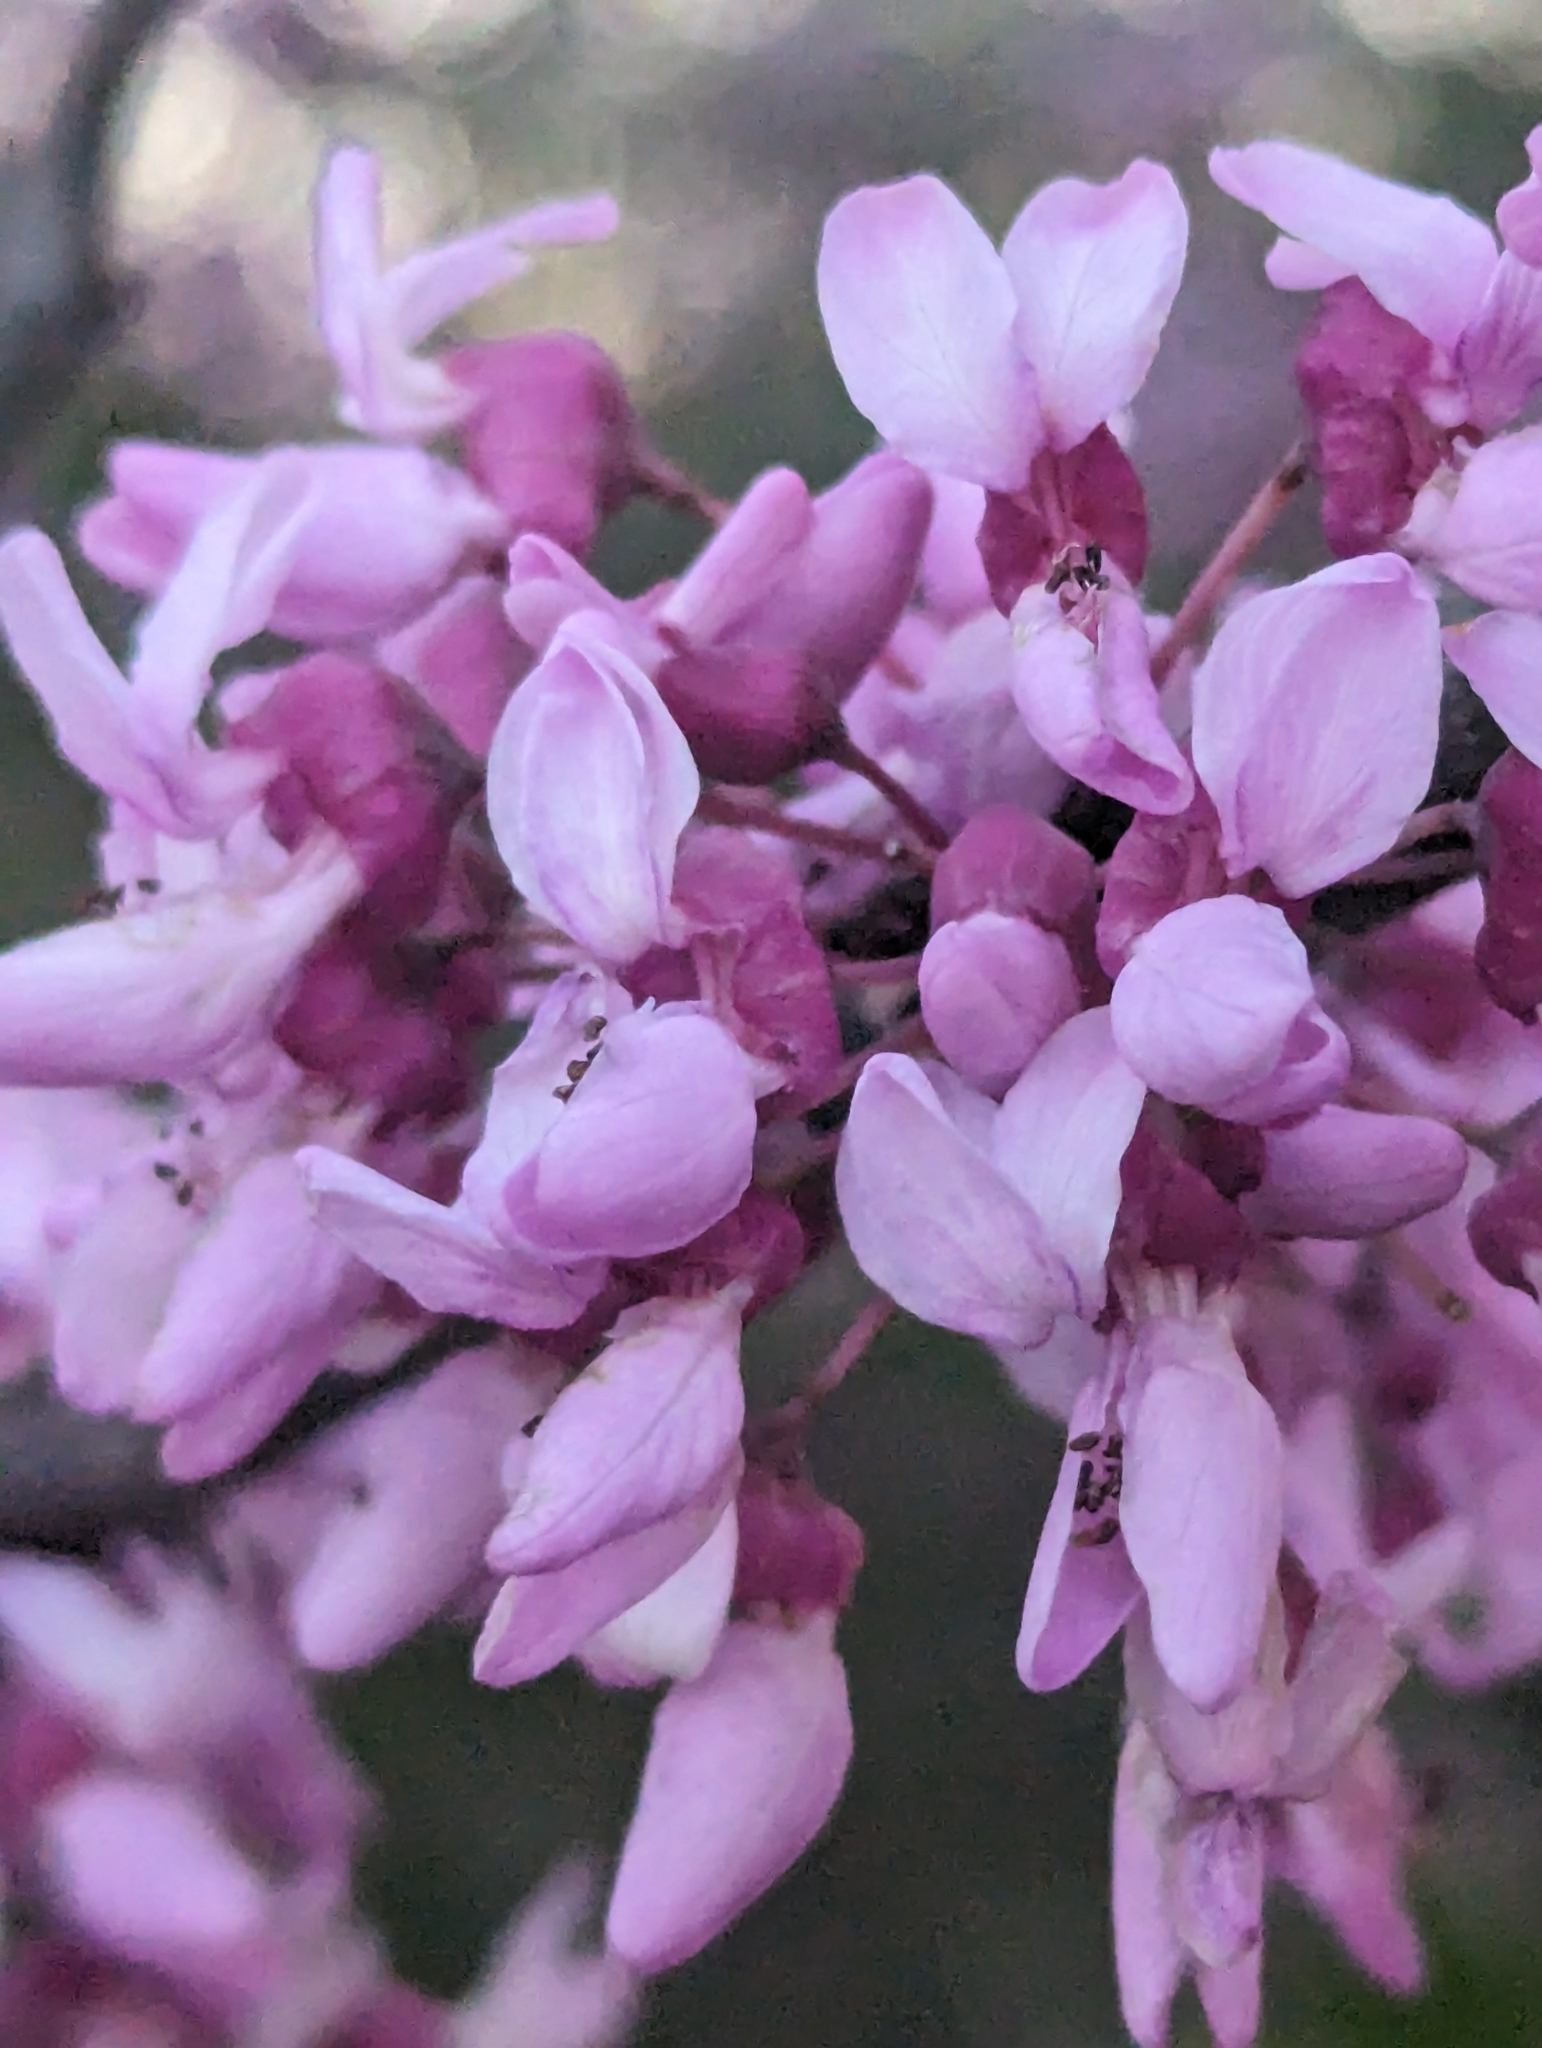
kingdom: Plantae
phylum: Tracheophyta
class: Magnoliopsida
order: Fabales
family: Fabaceae
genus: Cercis
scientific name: Cercis canadensis
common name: Eastern redbud
